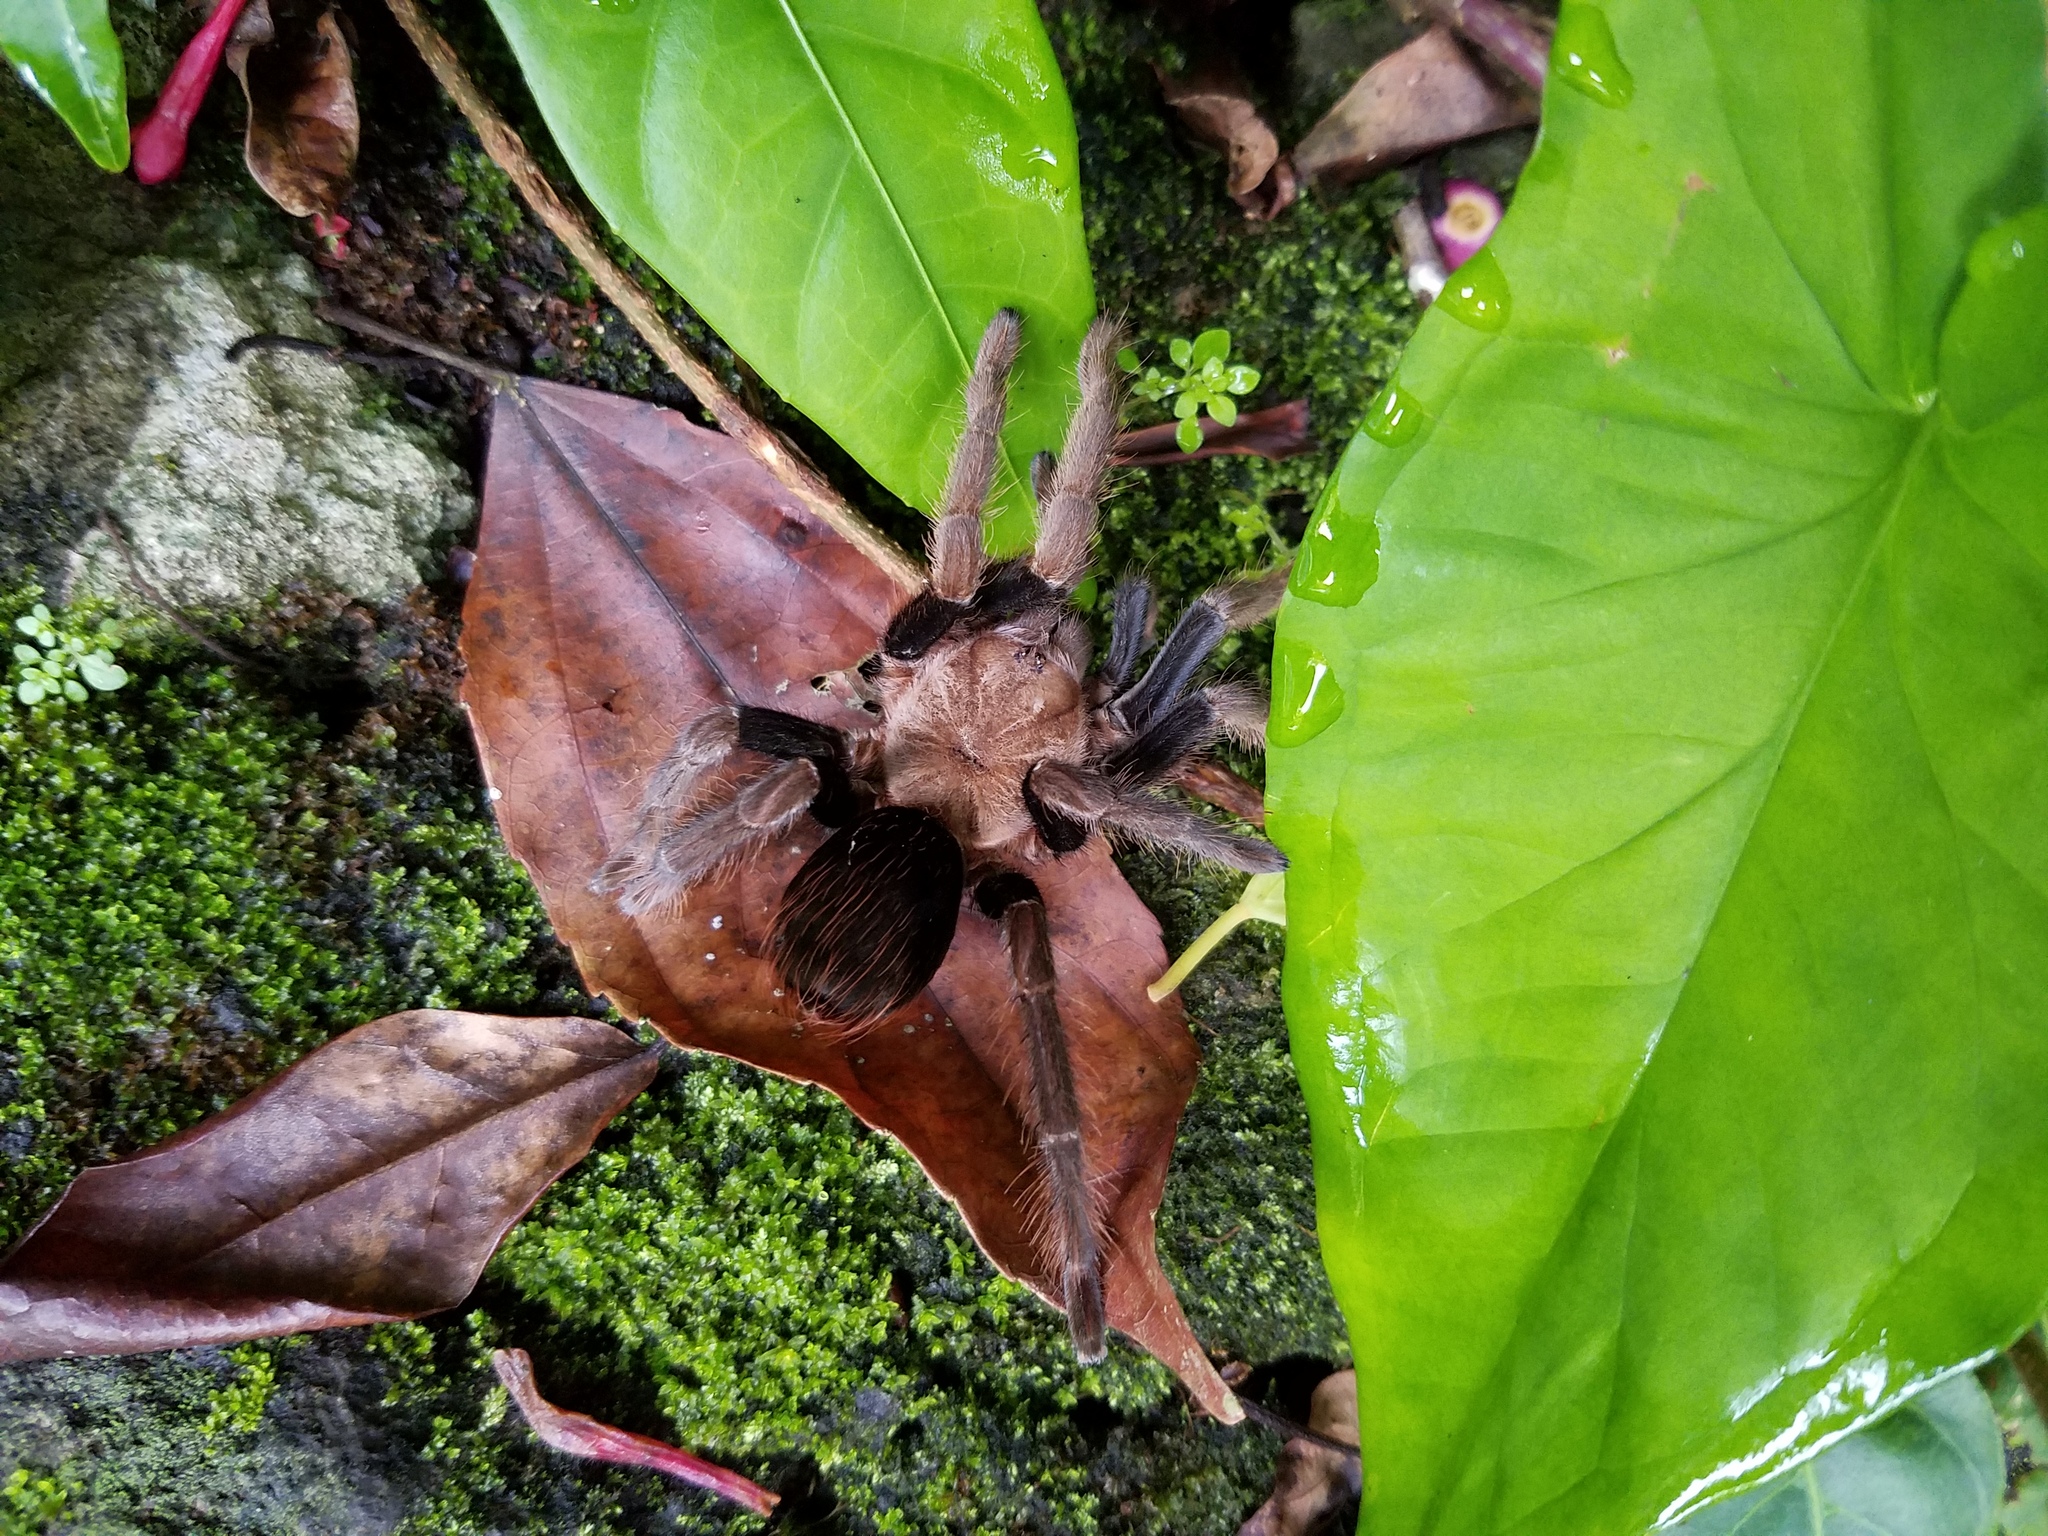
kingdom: Animalia
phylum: Arthropoda
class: Arachnida
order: Araneae
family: Theraphosidae
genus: Crassicrus
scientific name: Crassicrus tochtli
